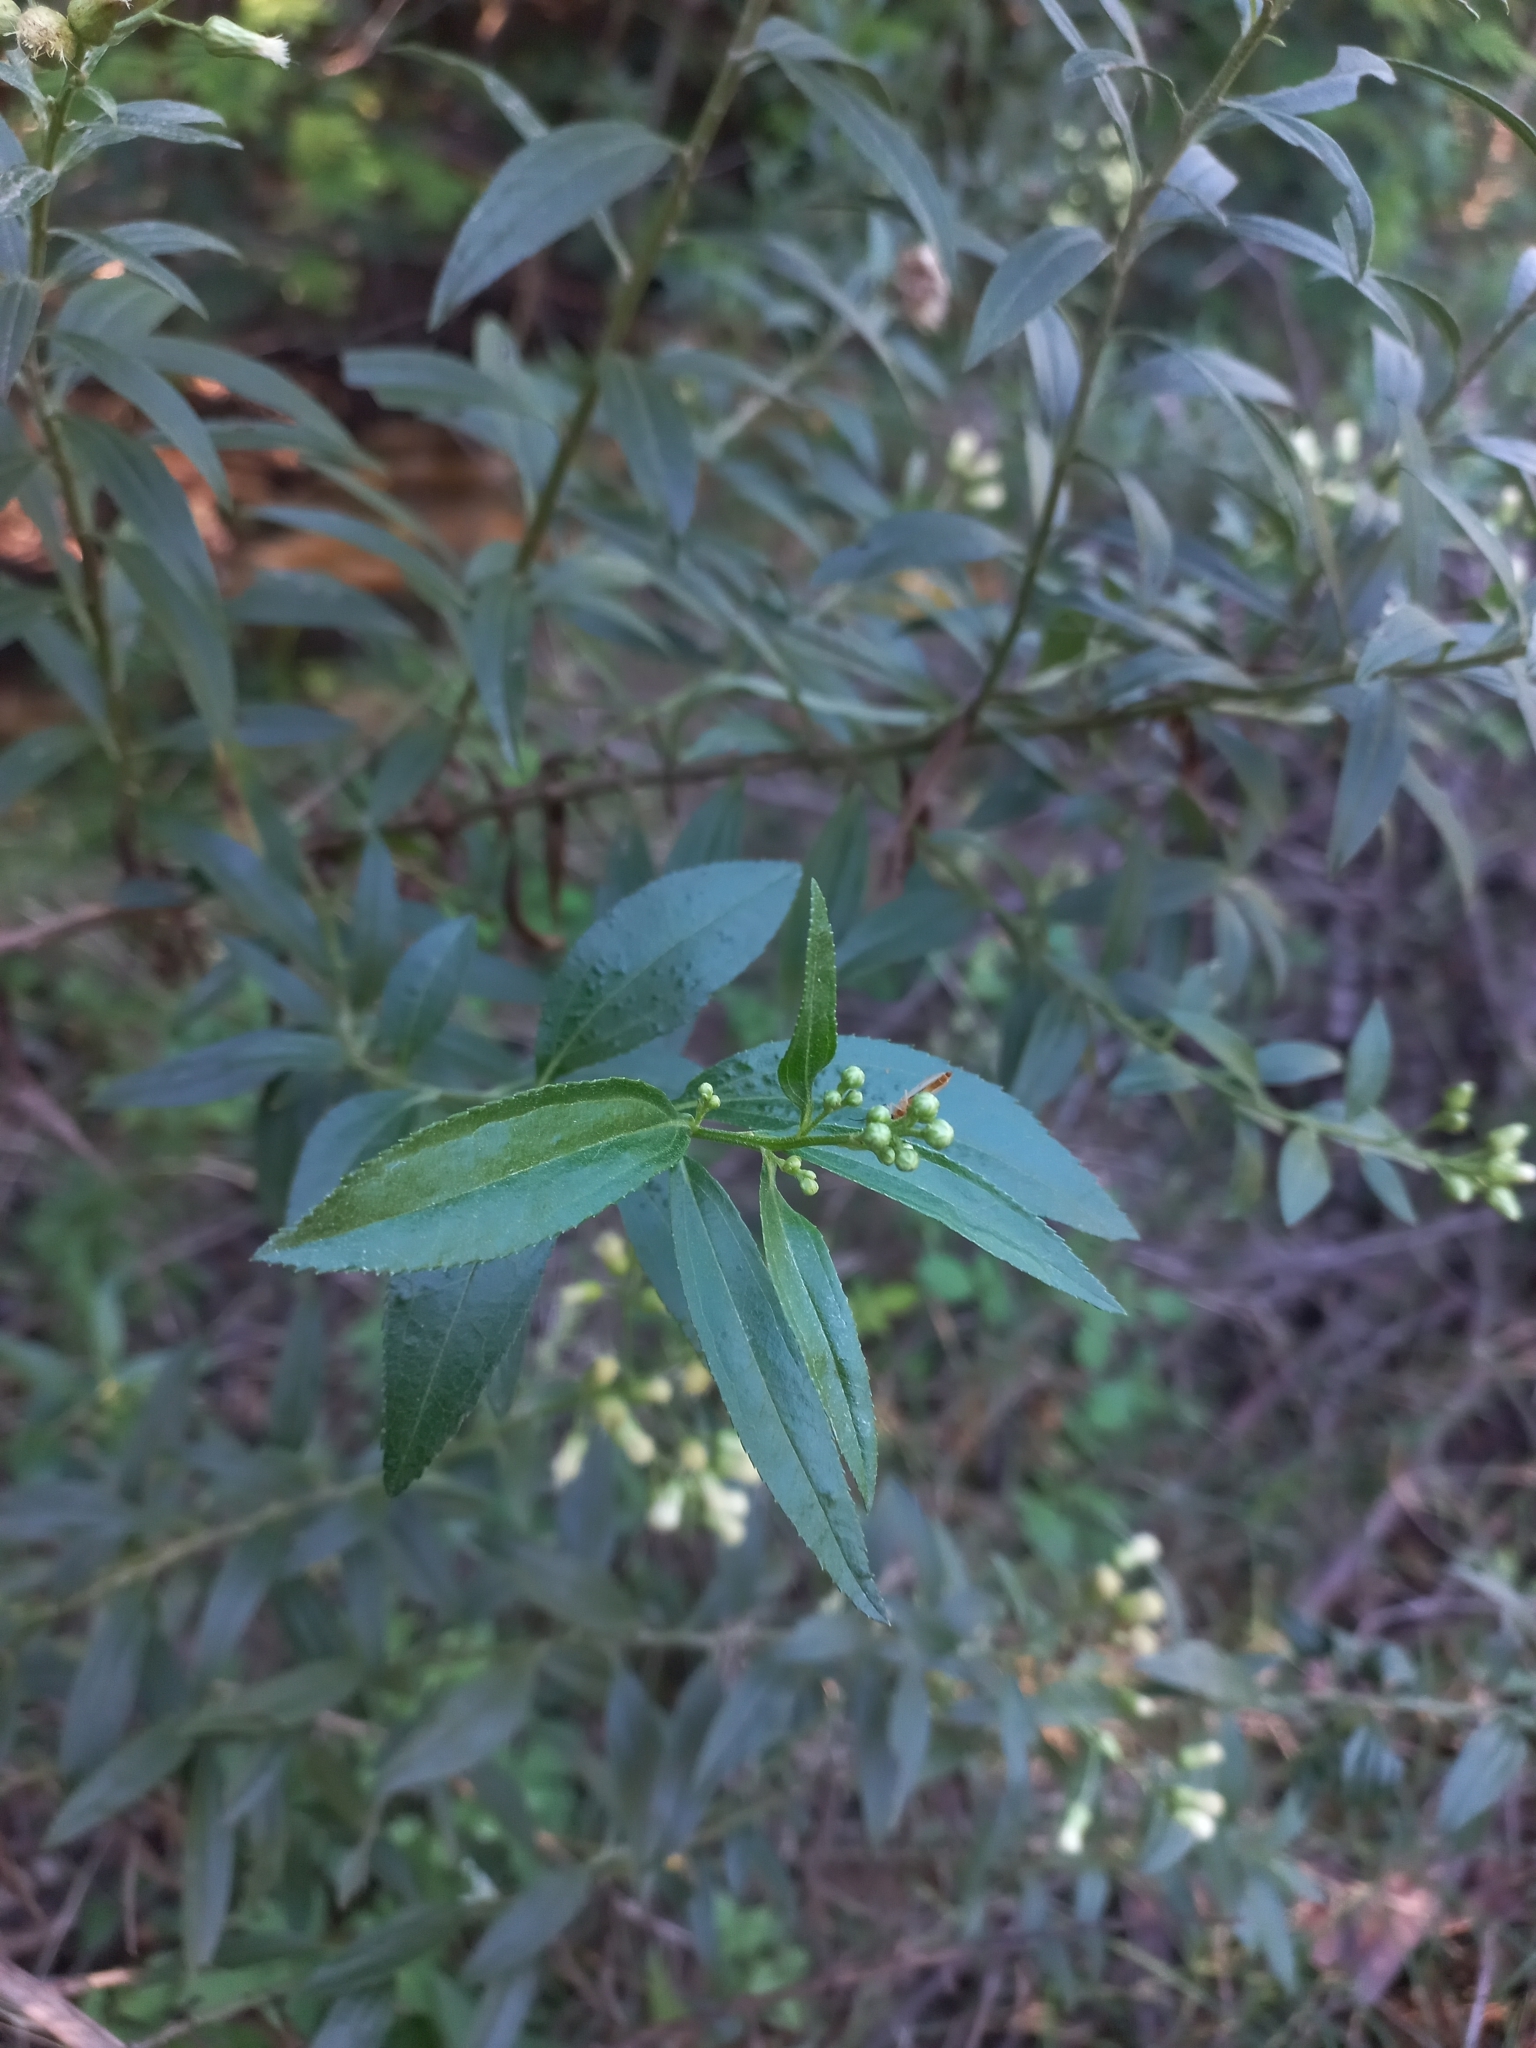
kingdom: Plantae
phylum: Tracheophyta
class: Magnoliopsida
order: Asterales
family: Asteraceae
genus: Baccharis
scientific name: Baccharis punctulata
